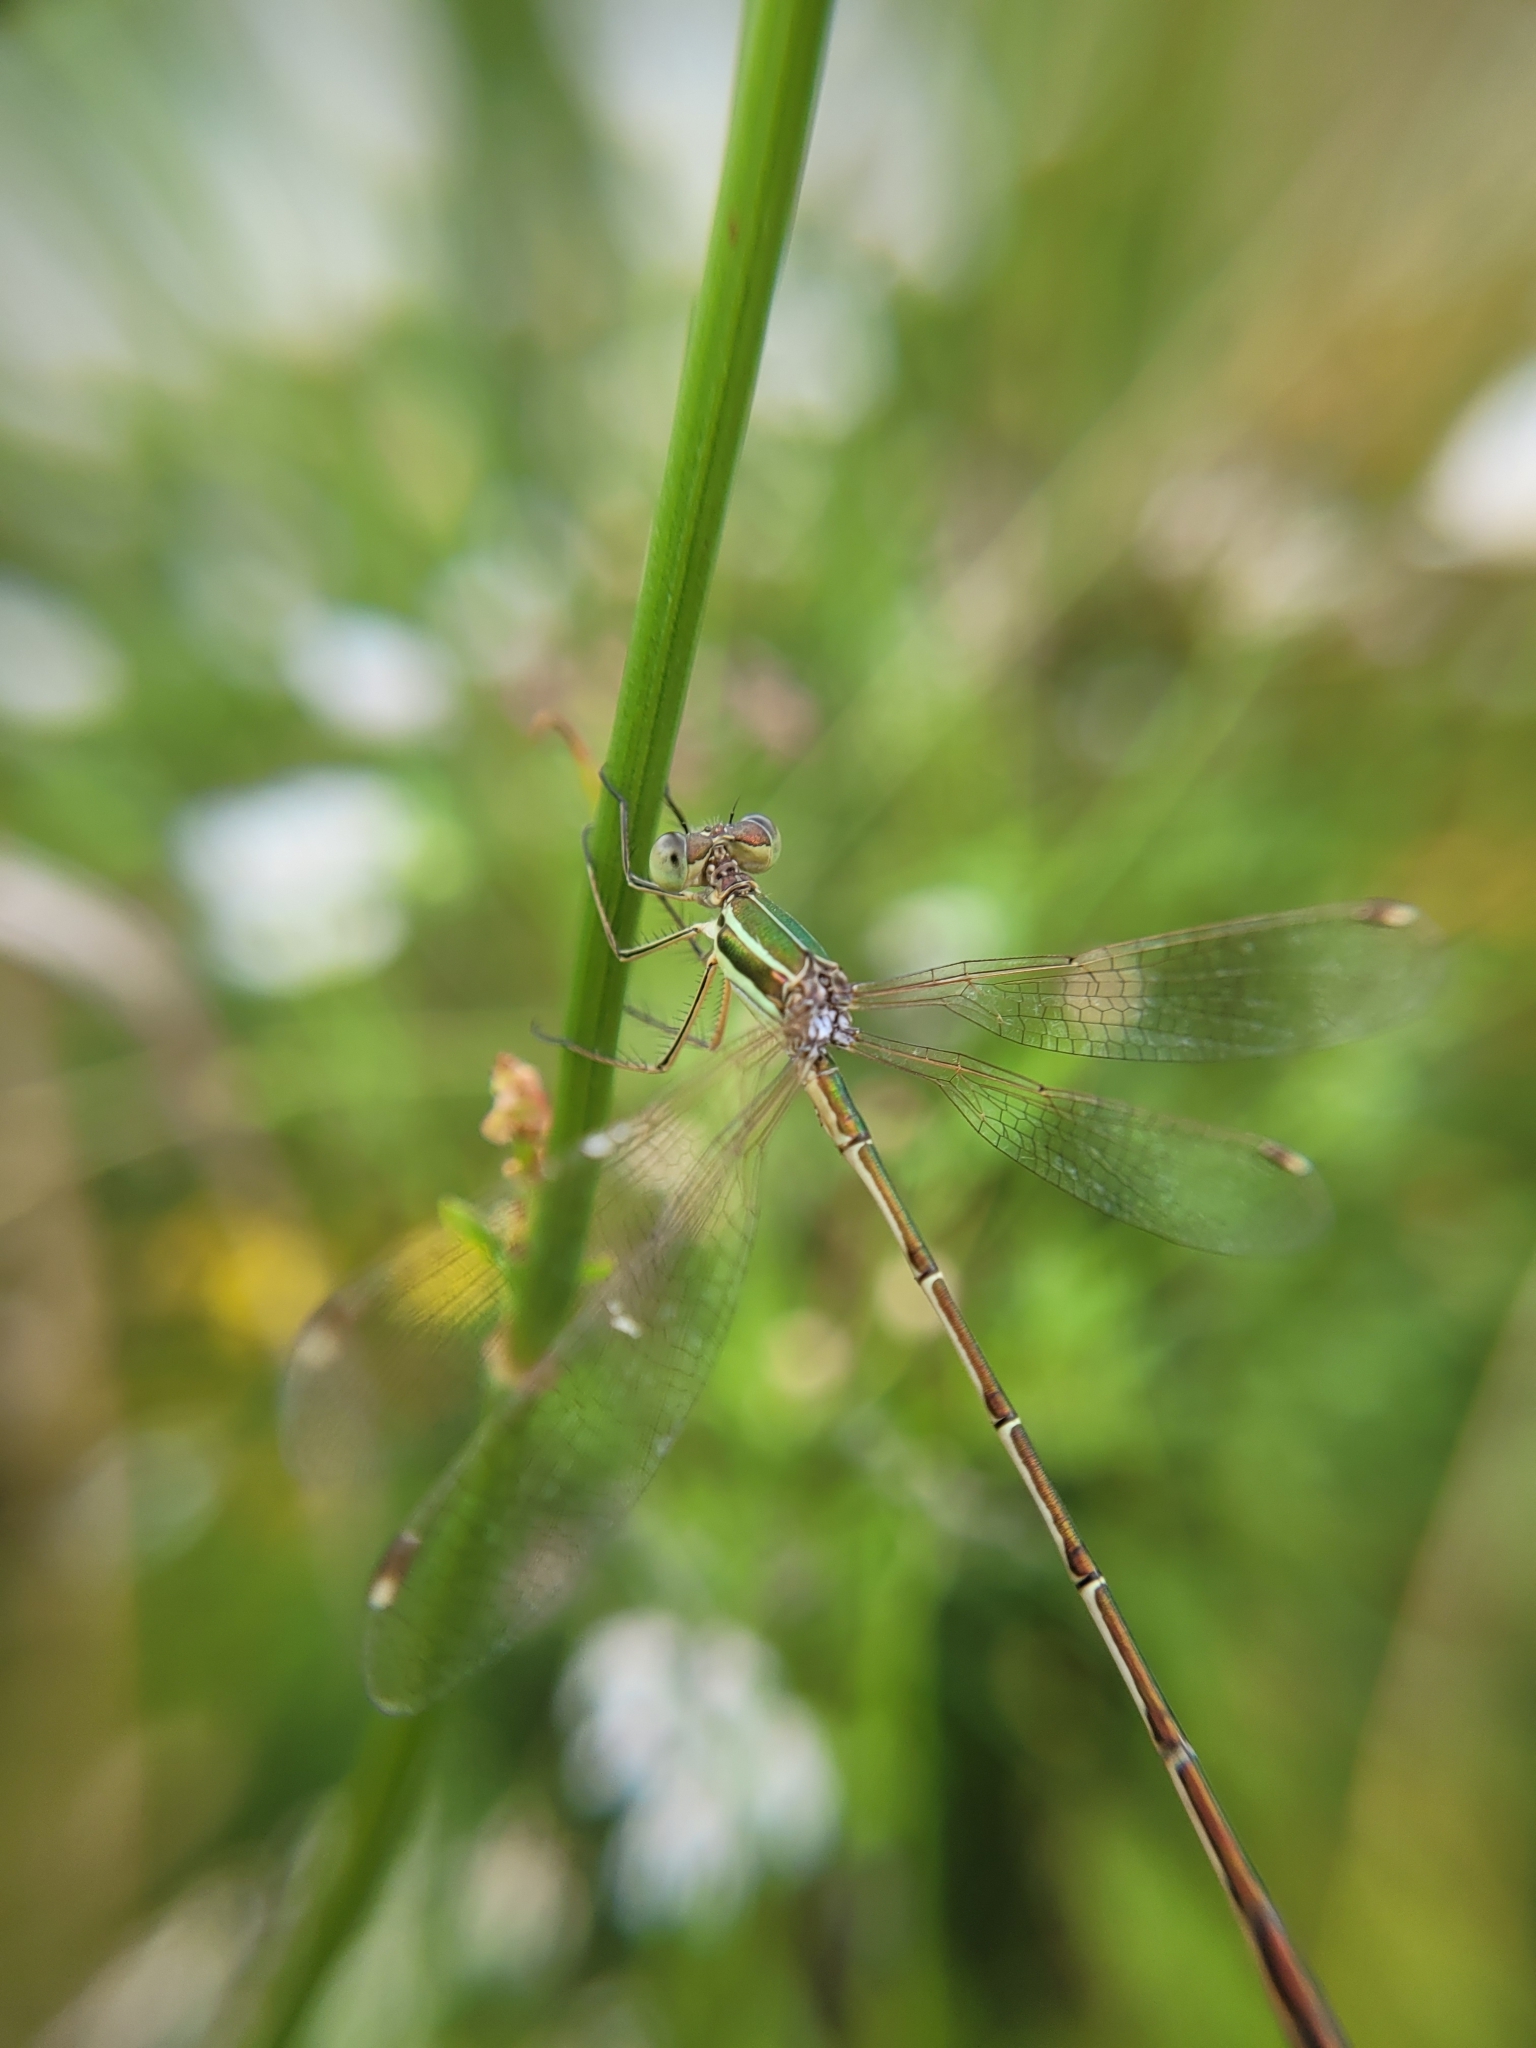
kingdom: Animalia
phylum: Arthropoda
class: Insecta
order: Odonata
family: Lestidae
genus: Lestes
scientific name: Lestes virens
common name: Small emerald spreadwing
